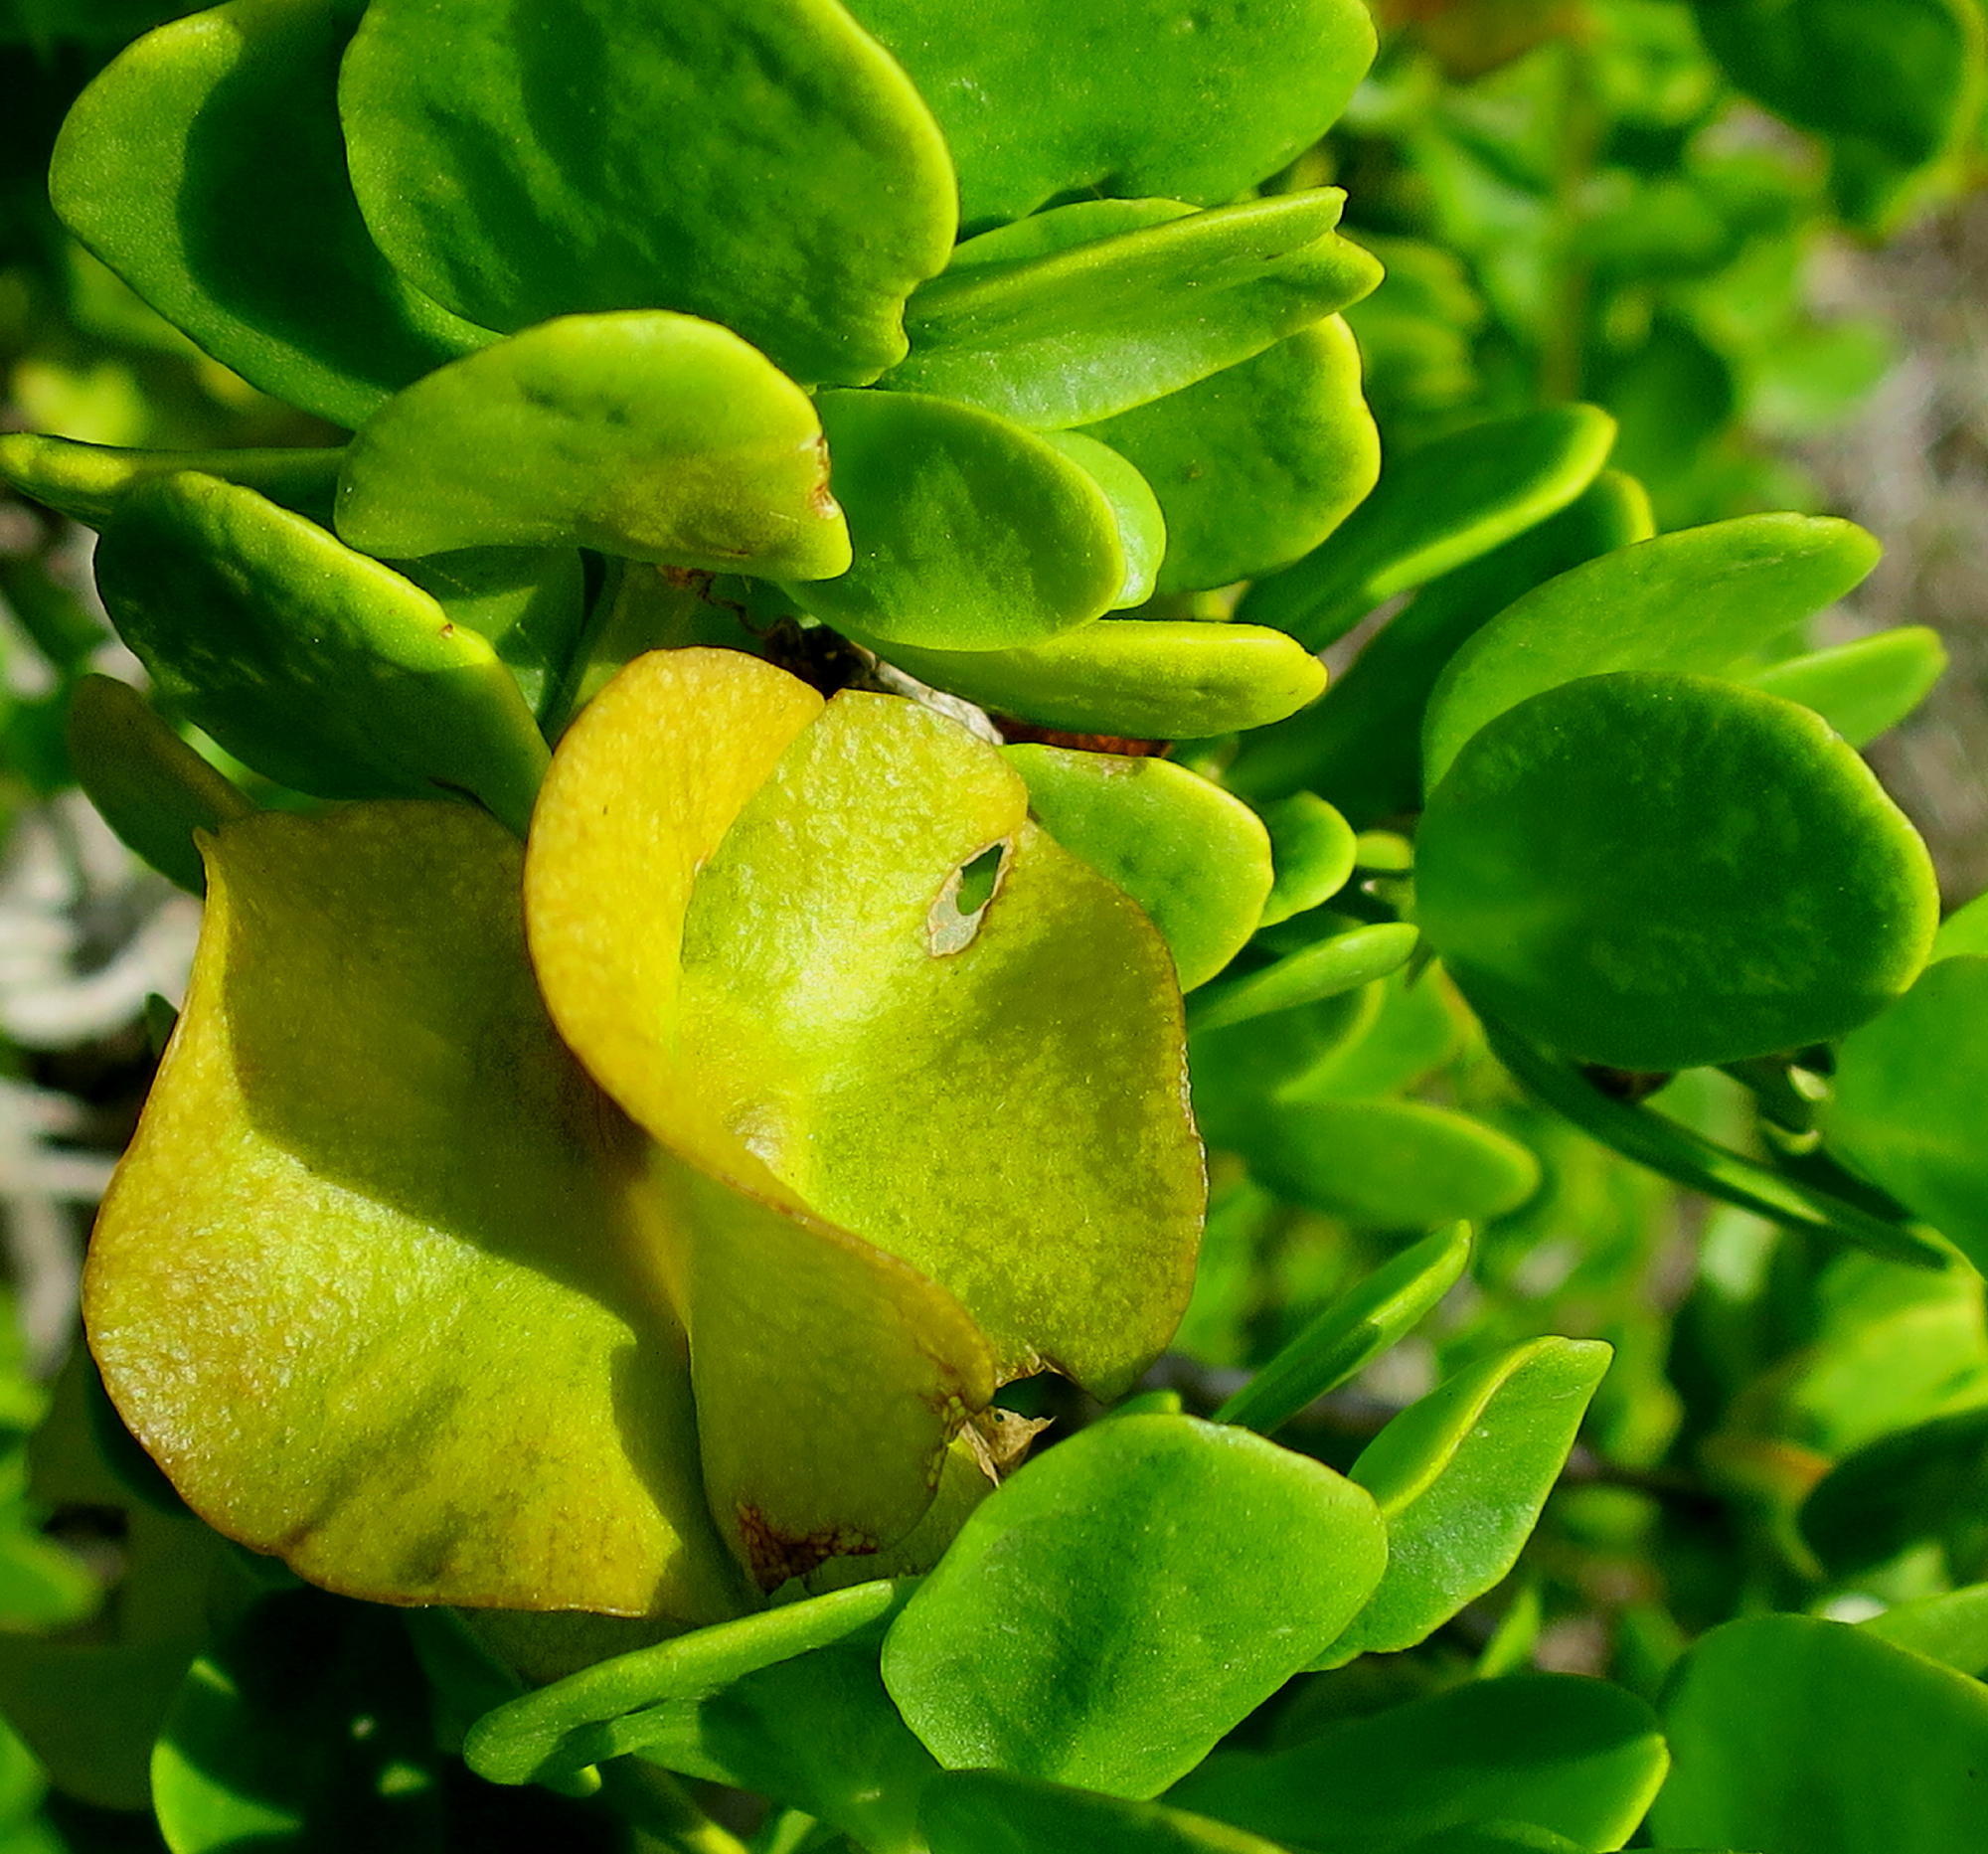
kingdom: Plantae
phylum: Tracheophyta
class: Magnoliopsida
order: Zygophyllales
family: Zygophyllaceae
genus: Roepera
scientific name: Roepera morgsana
